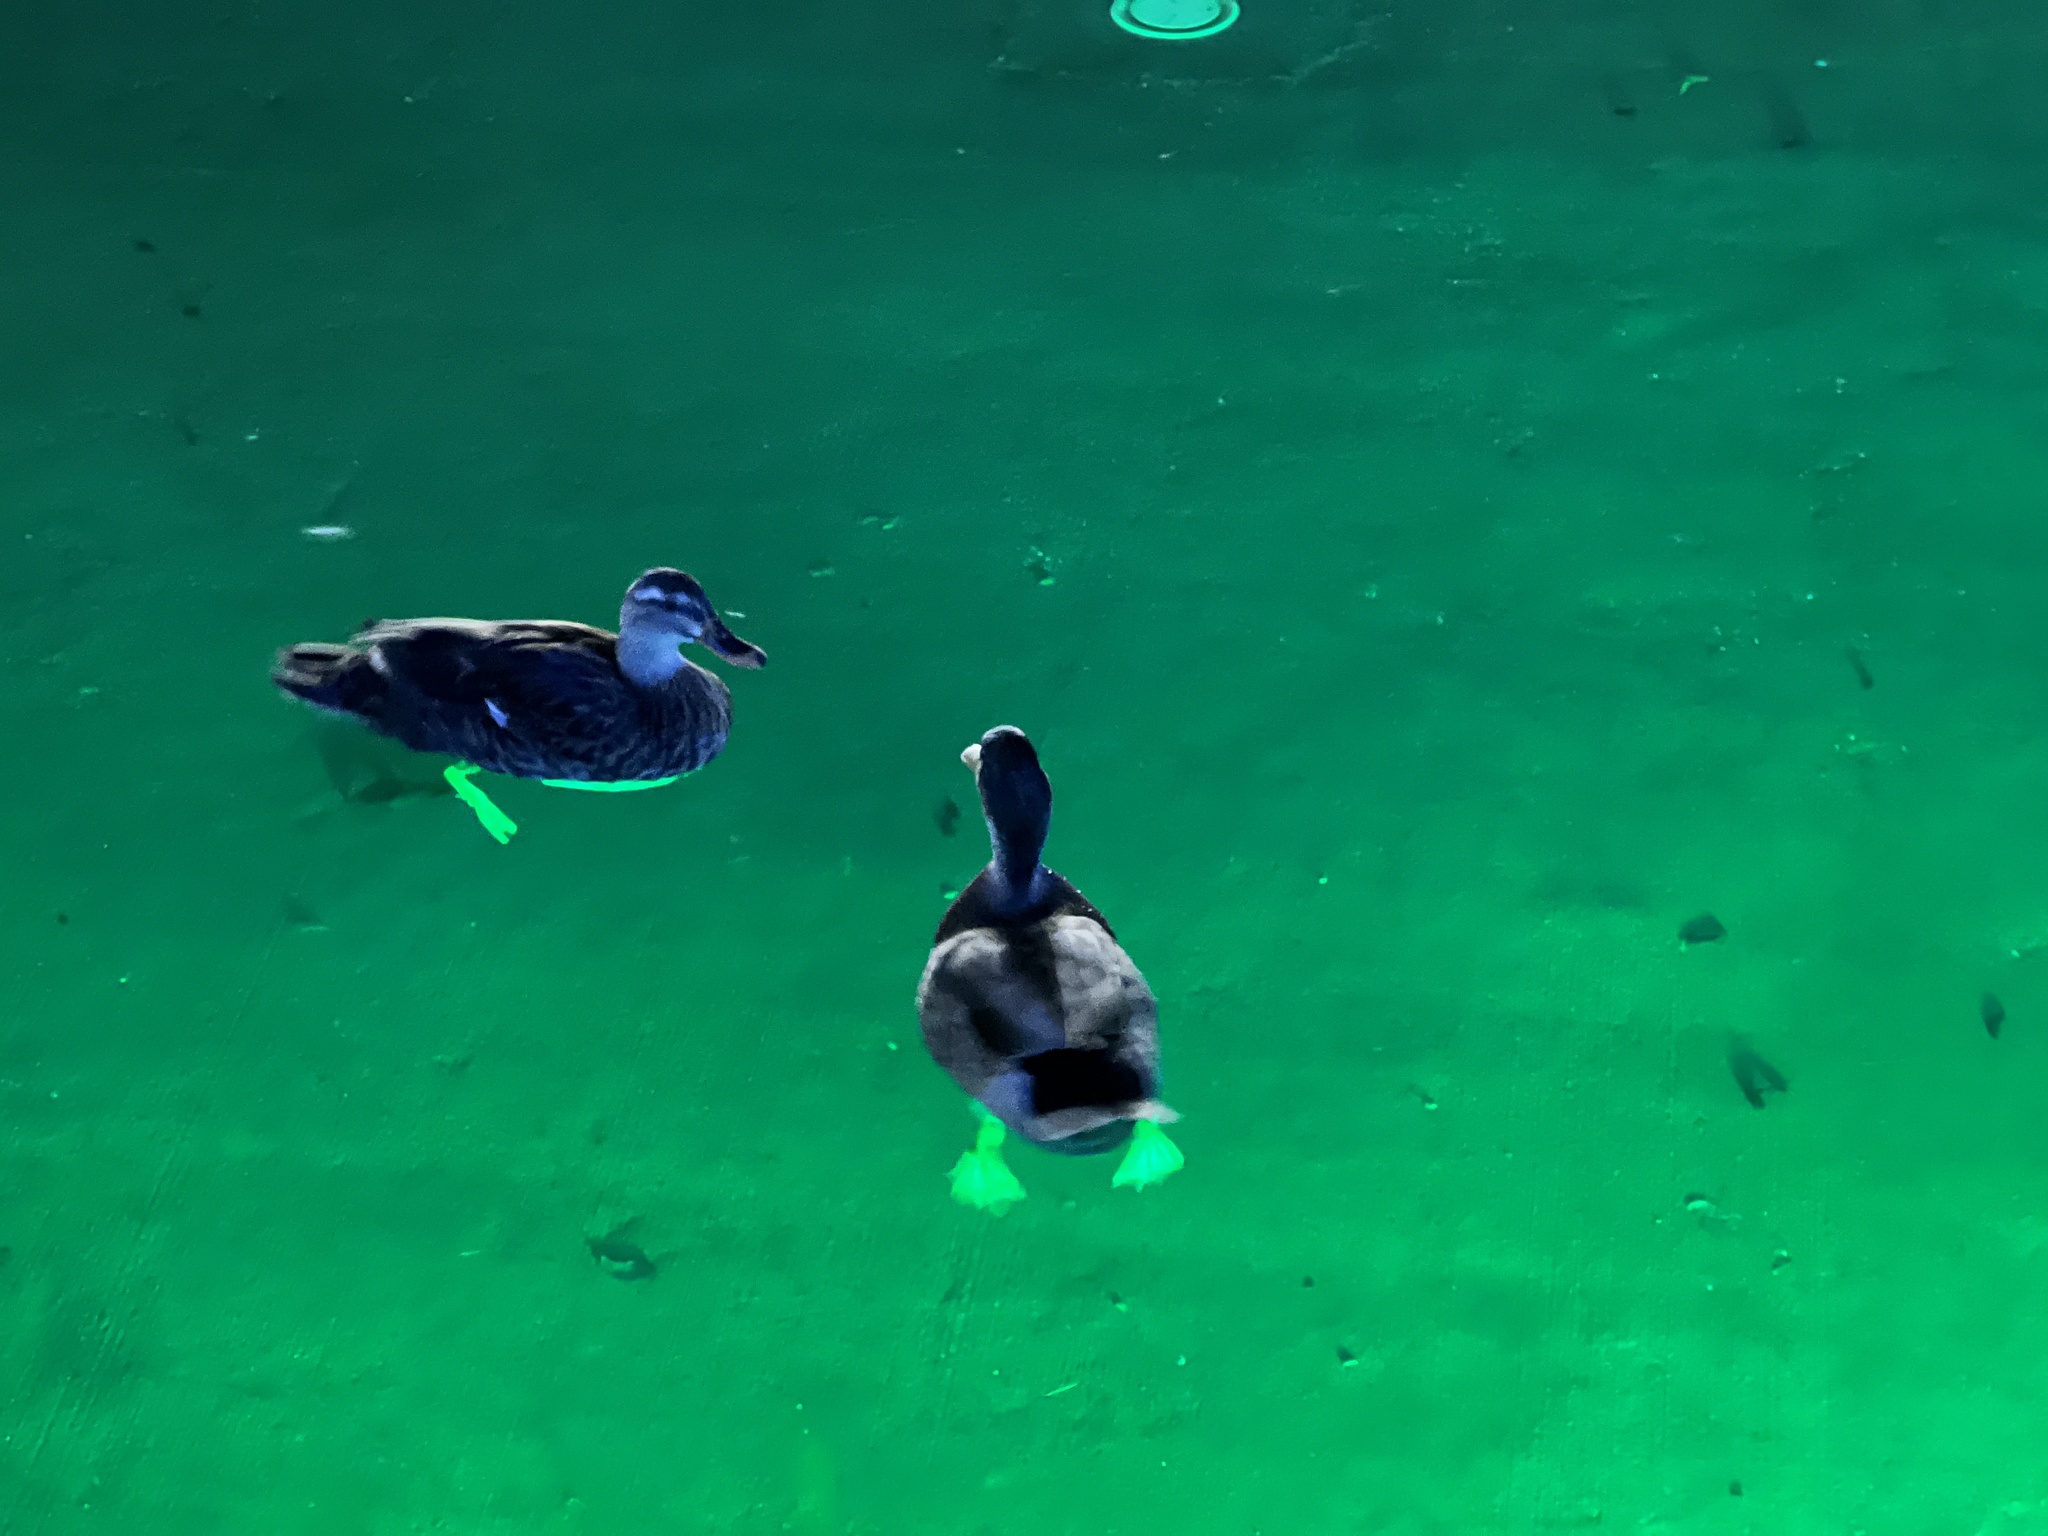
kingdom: Animalia
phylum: Chordata
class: Aves
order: Anseriformes
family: Anatidae
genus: Anas
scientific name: Anas platyrhynchos
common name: Mallard
